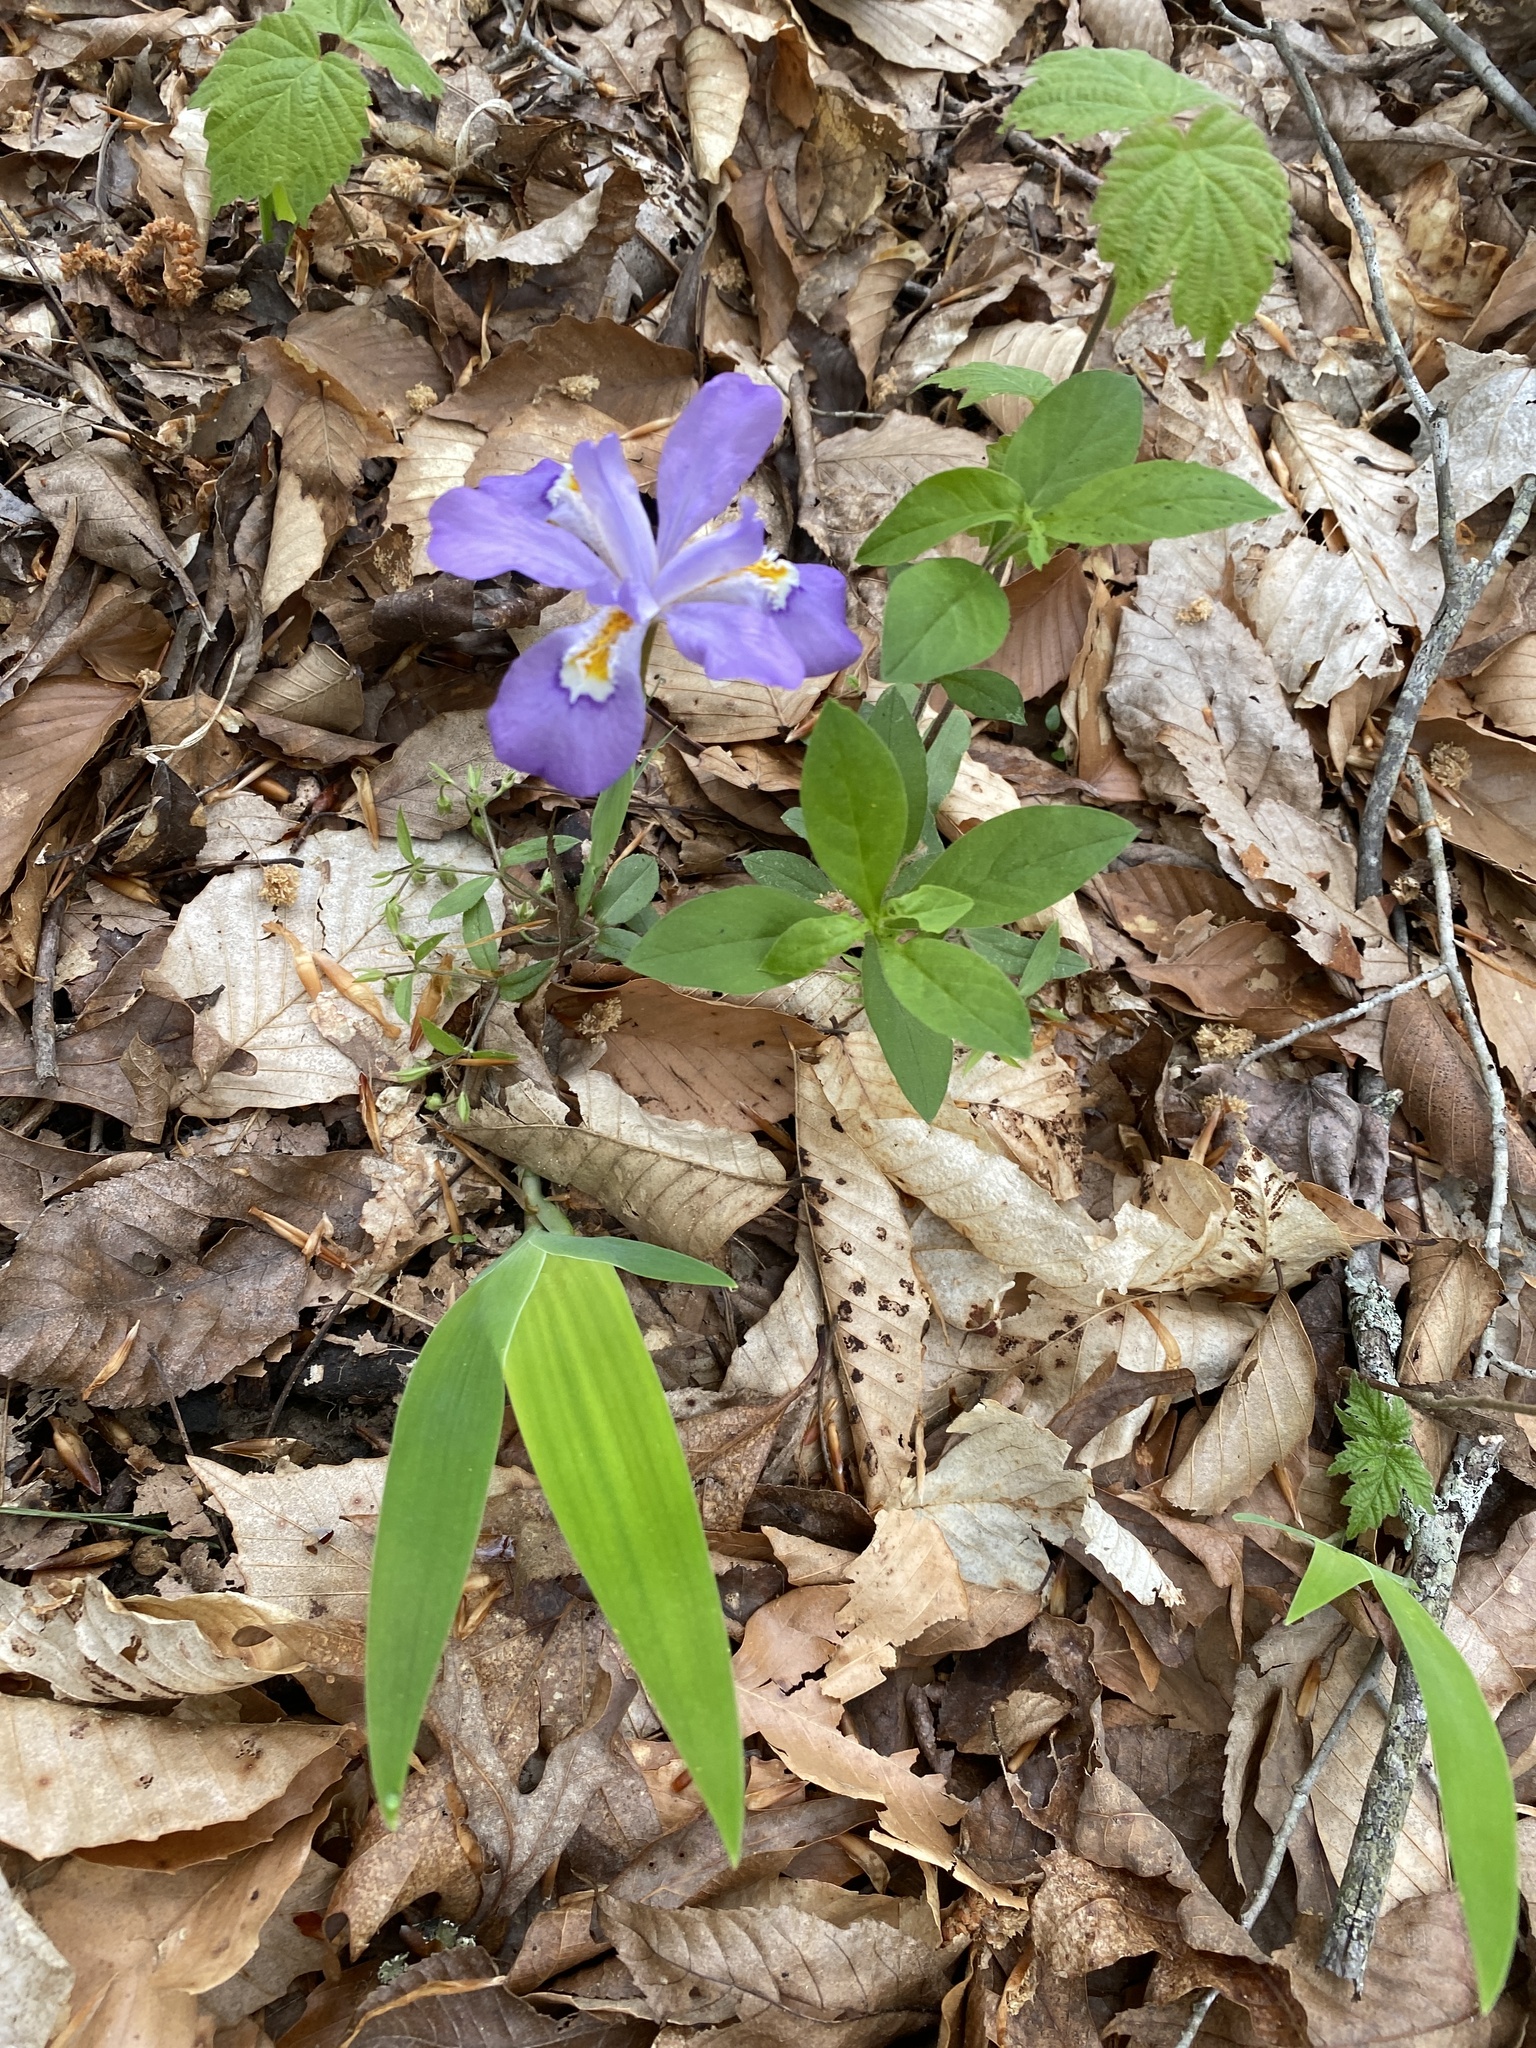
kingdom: Plantae
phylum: Tracheophyta
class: Liliopsida
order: Asparagales
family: Iridaceae
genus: Iris
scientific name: Iris cristata
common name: Crested iris
